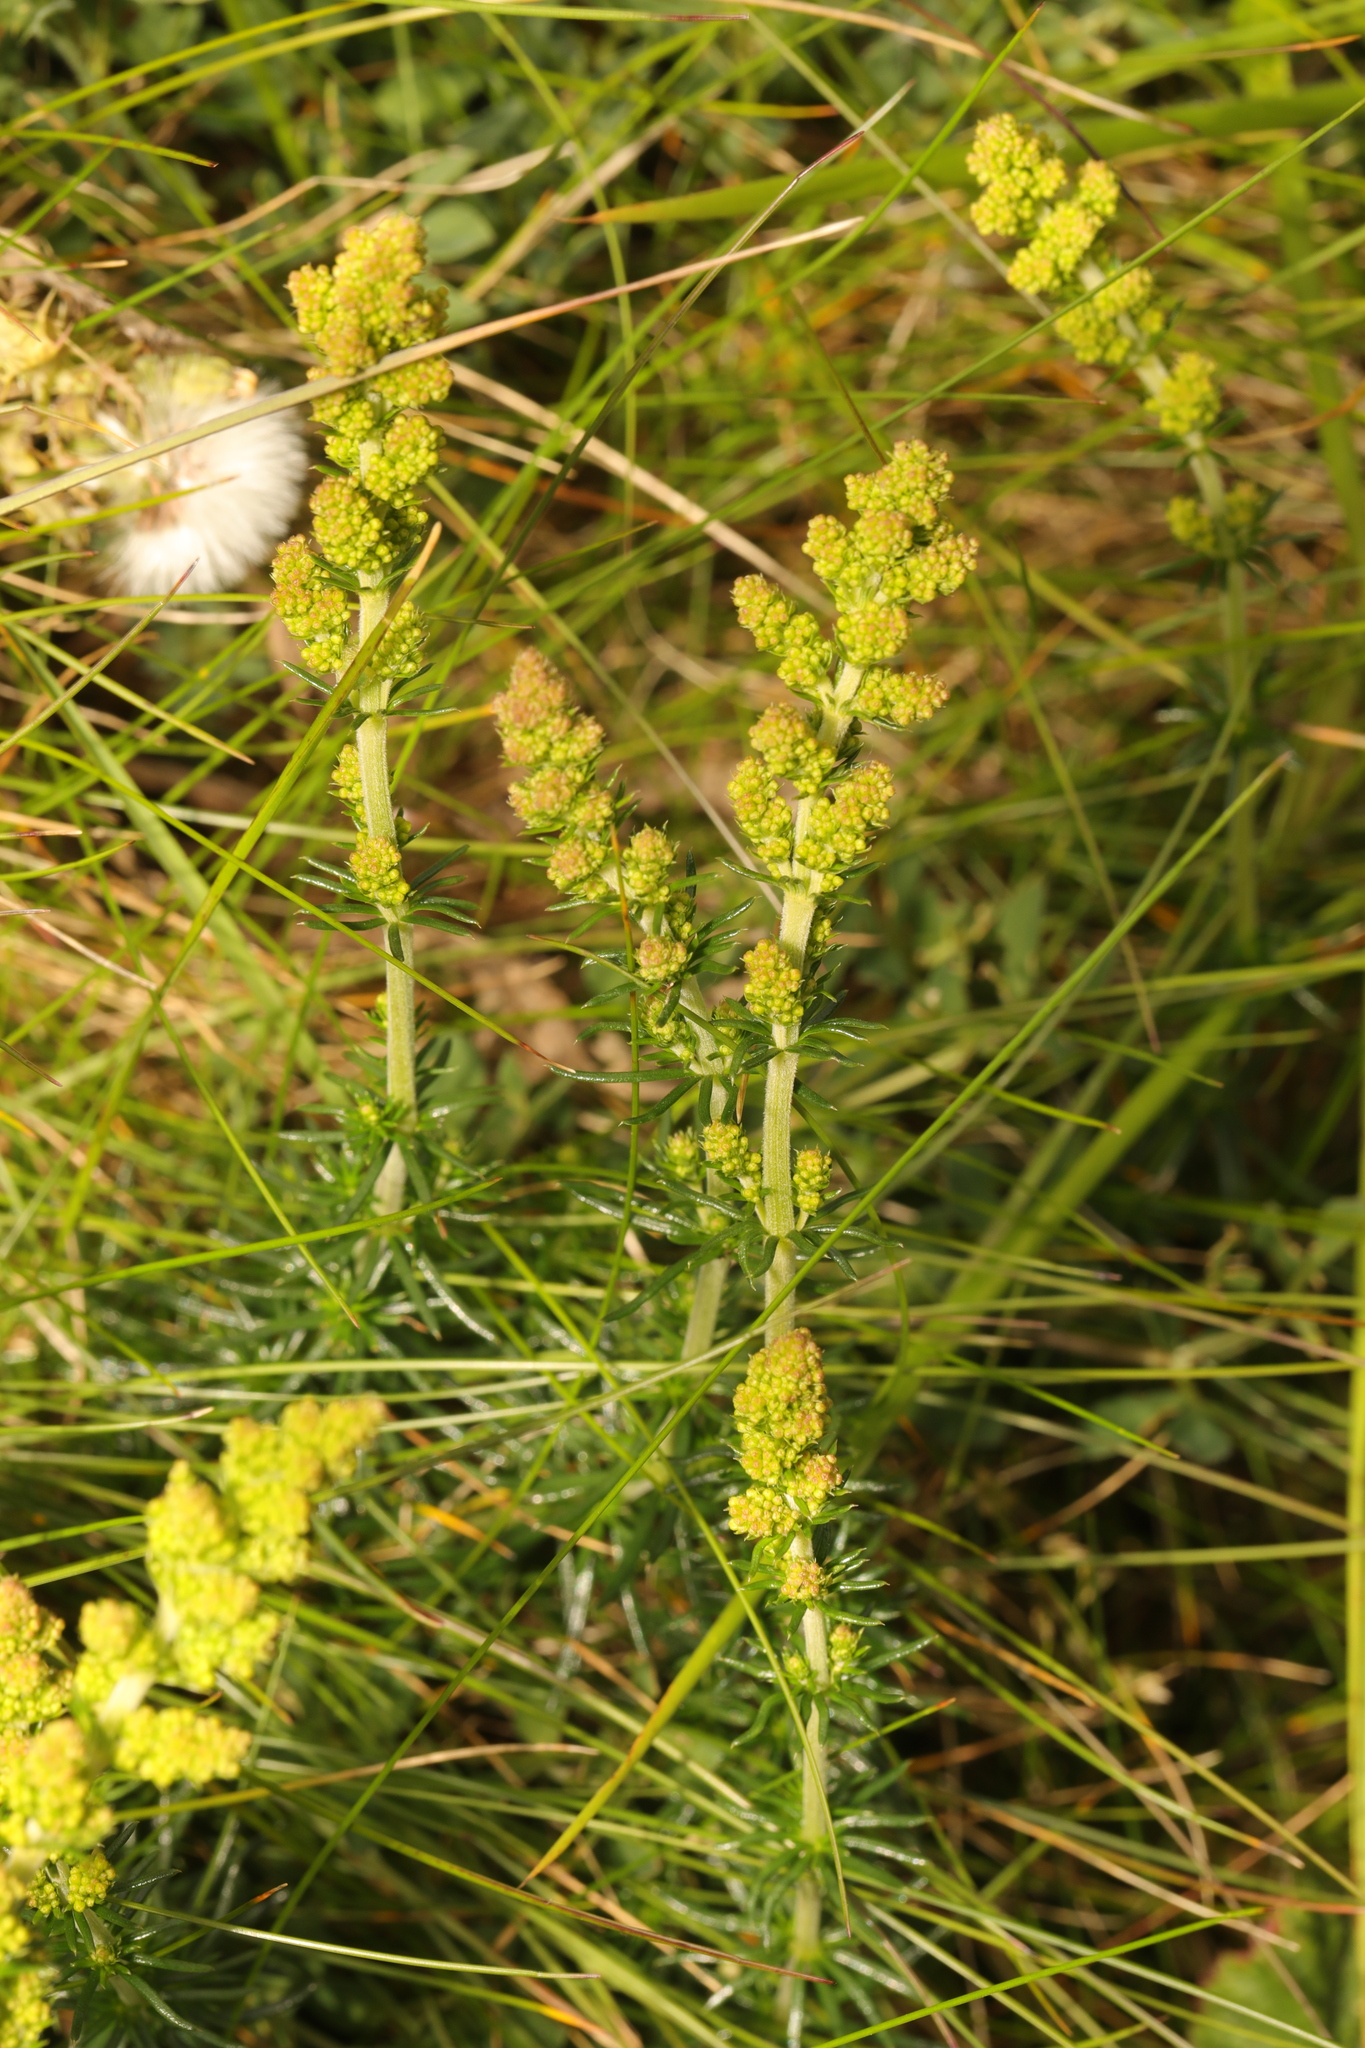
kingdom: Plantae
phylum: Tracheophyta
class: Magnoliopsida
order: Gentianales
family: Rubiaceae
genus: Galium
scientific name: Galium verum
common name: Lady's bedstraw
